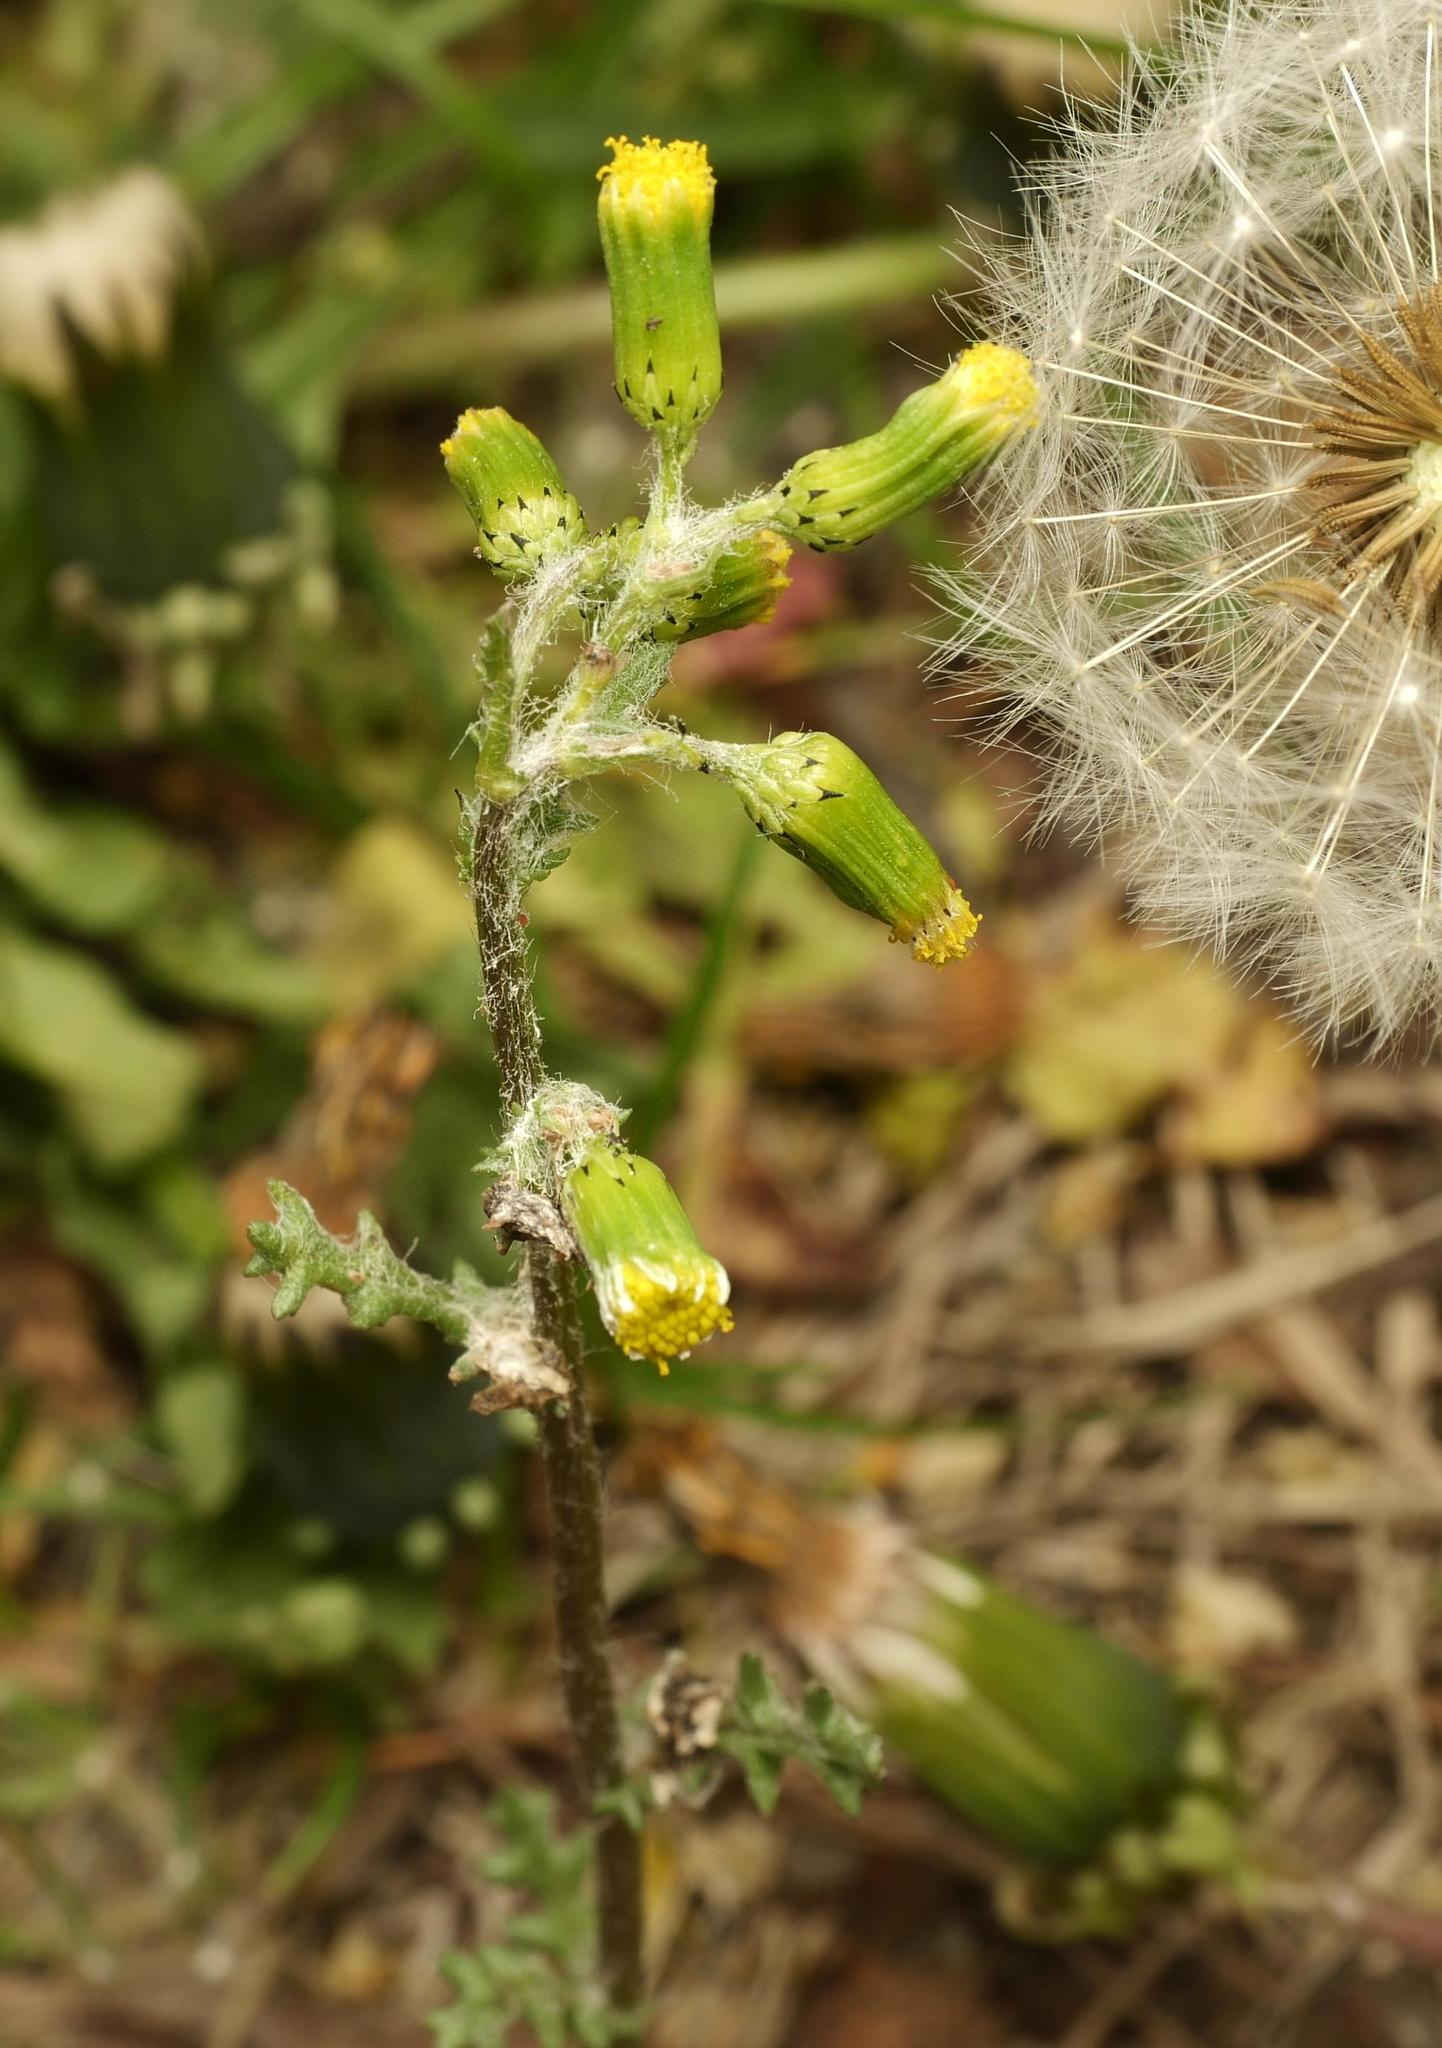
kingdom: Plantae
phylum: Tracheophyta
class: Magnoliopsida
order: Asterales
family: Asteraceae
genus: Senecio
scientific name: Senecio vulgaris
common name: Old-man-in-the-spring
